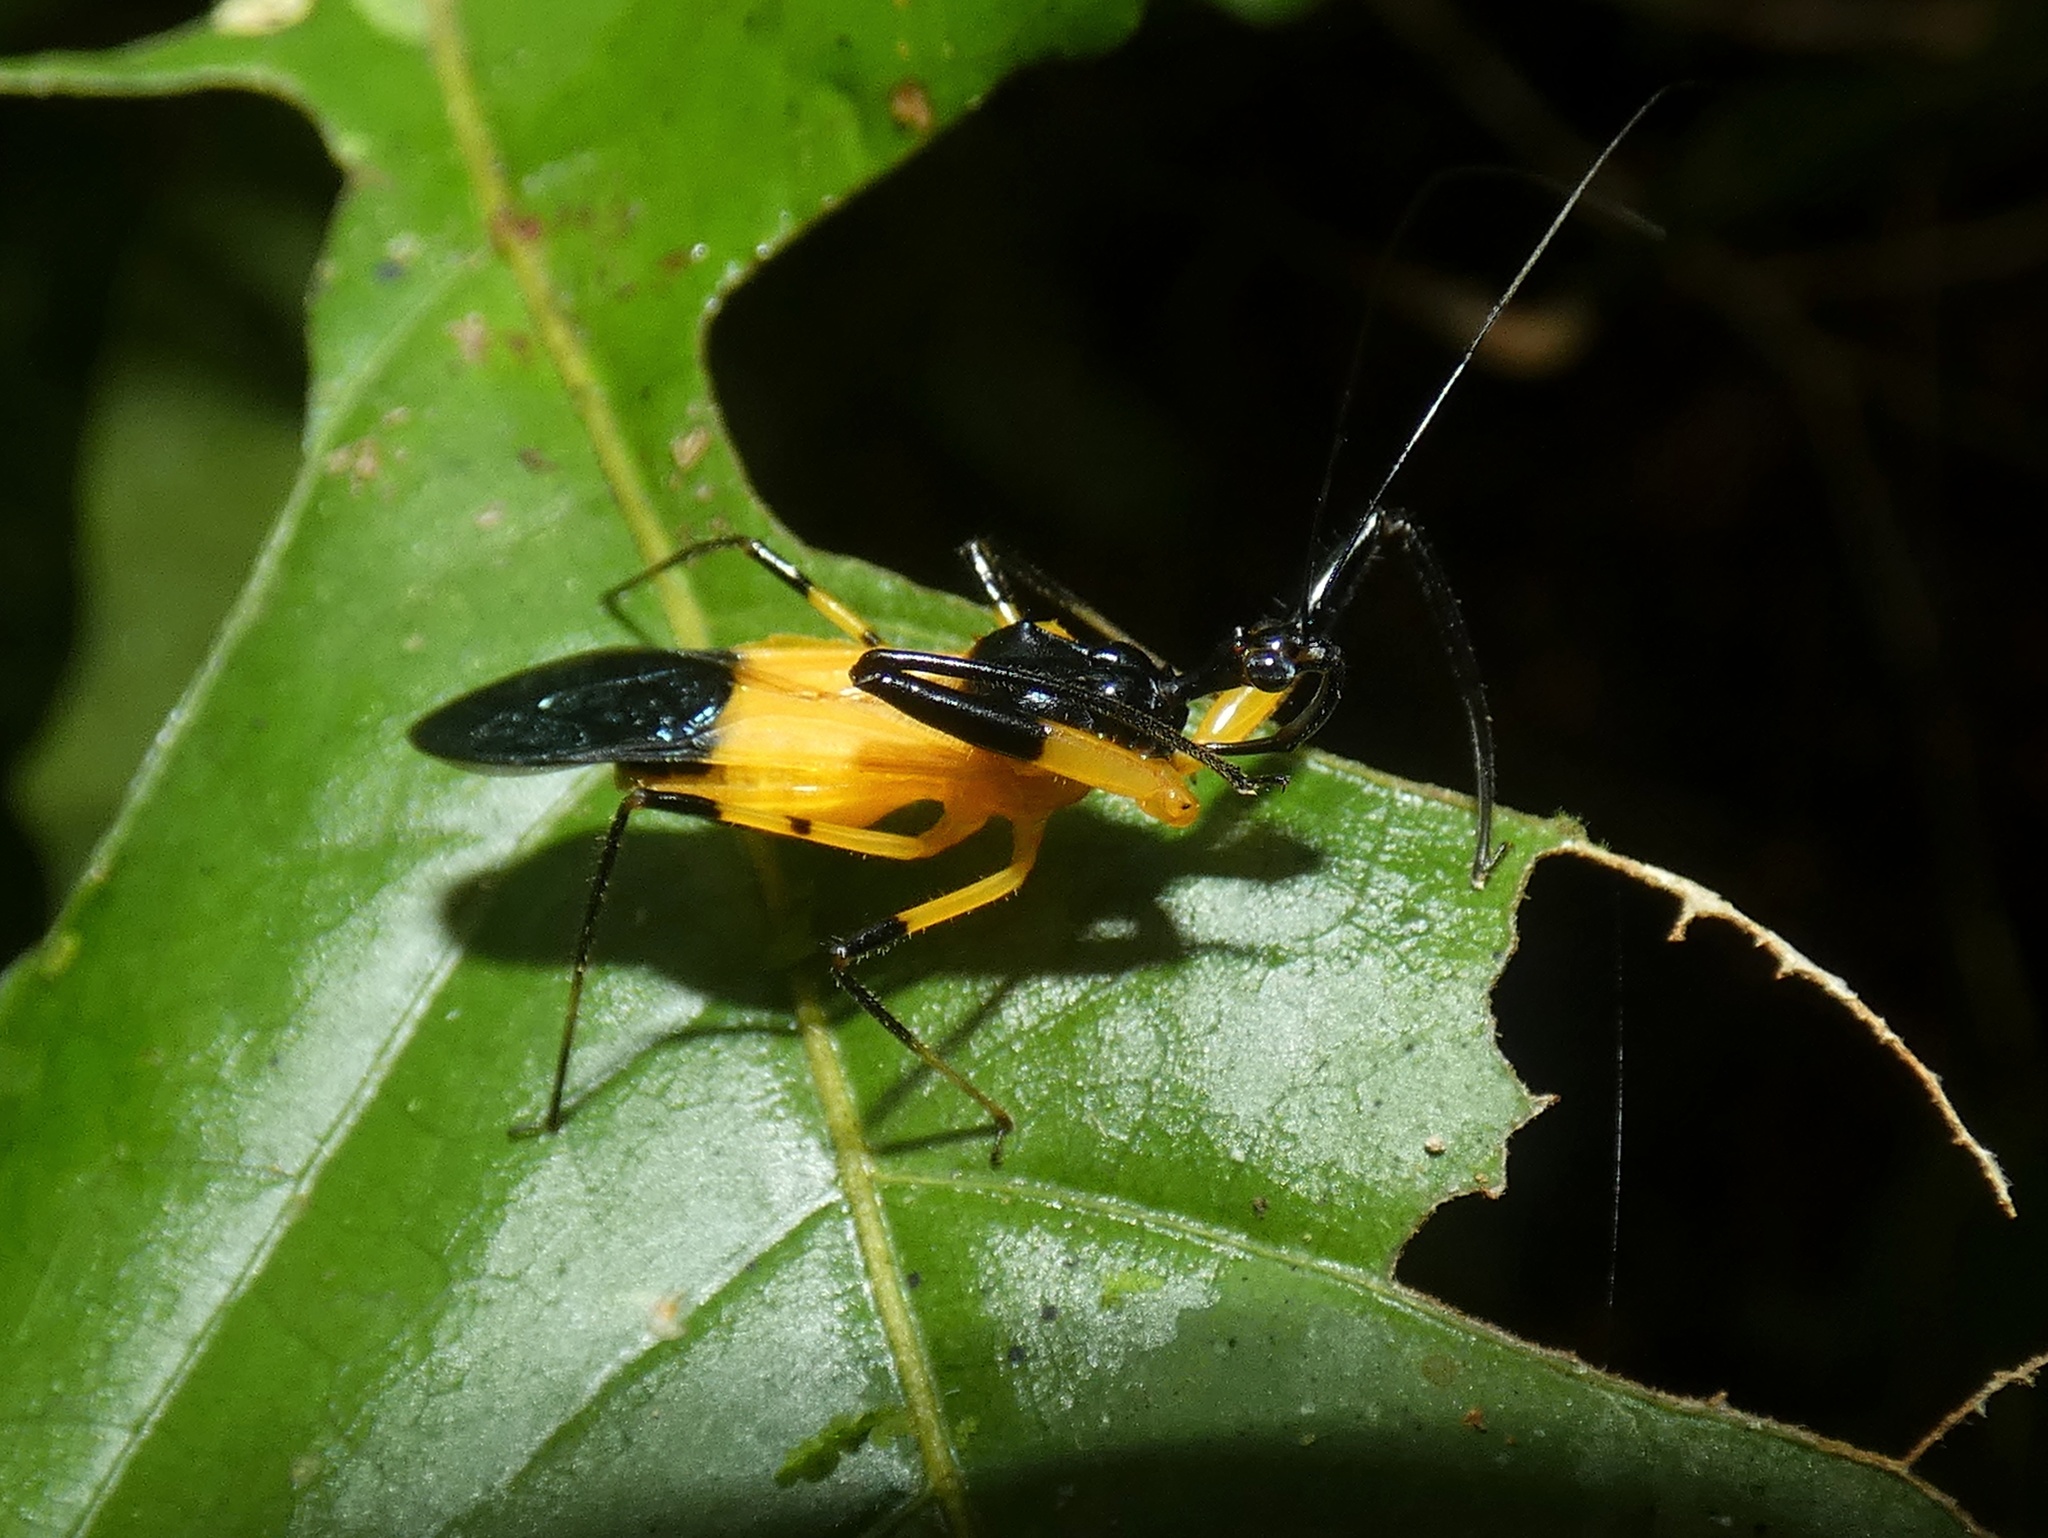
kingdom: Animalia
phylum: Arthropoda
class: Insecta
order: Hemiptera
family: Reduviidae
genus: Acanthischium
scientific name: Acanthischium
